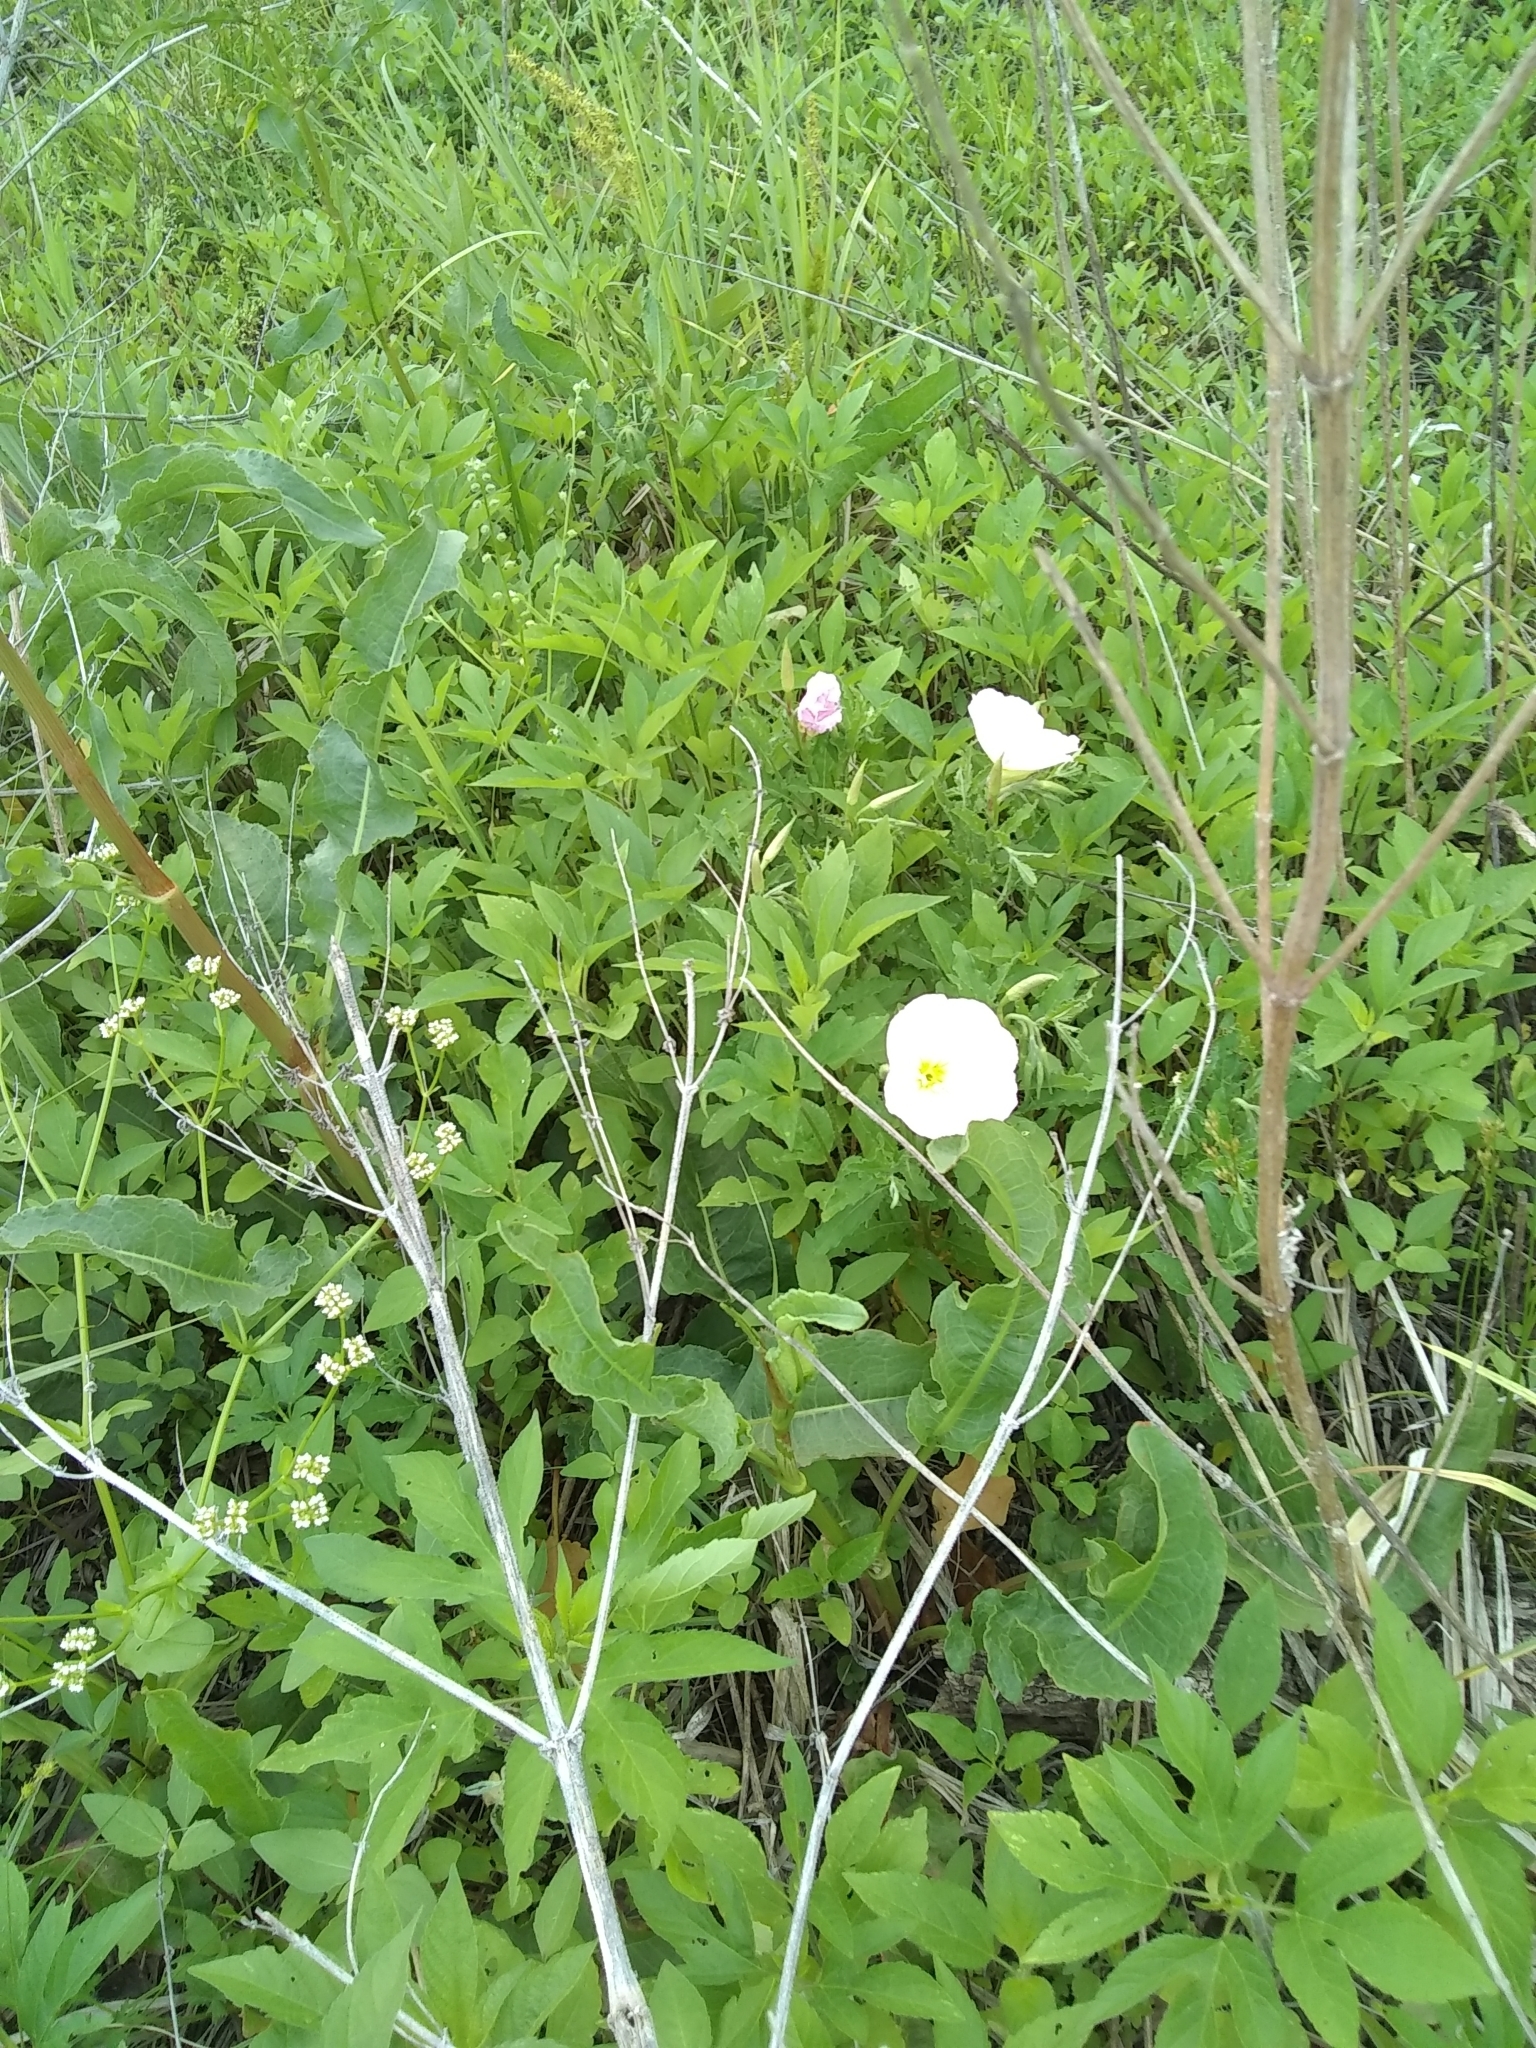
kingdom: Plantae
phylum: Tracheophyta
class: Magnoliopsida
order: Myrtales
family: Onagraceae
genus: Oenothera
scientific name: Oenothera speciosa
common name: White evening-primrose
